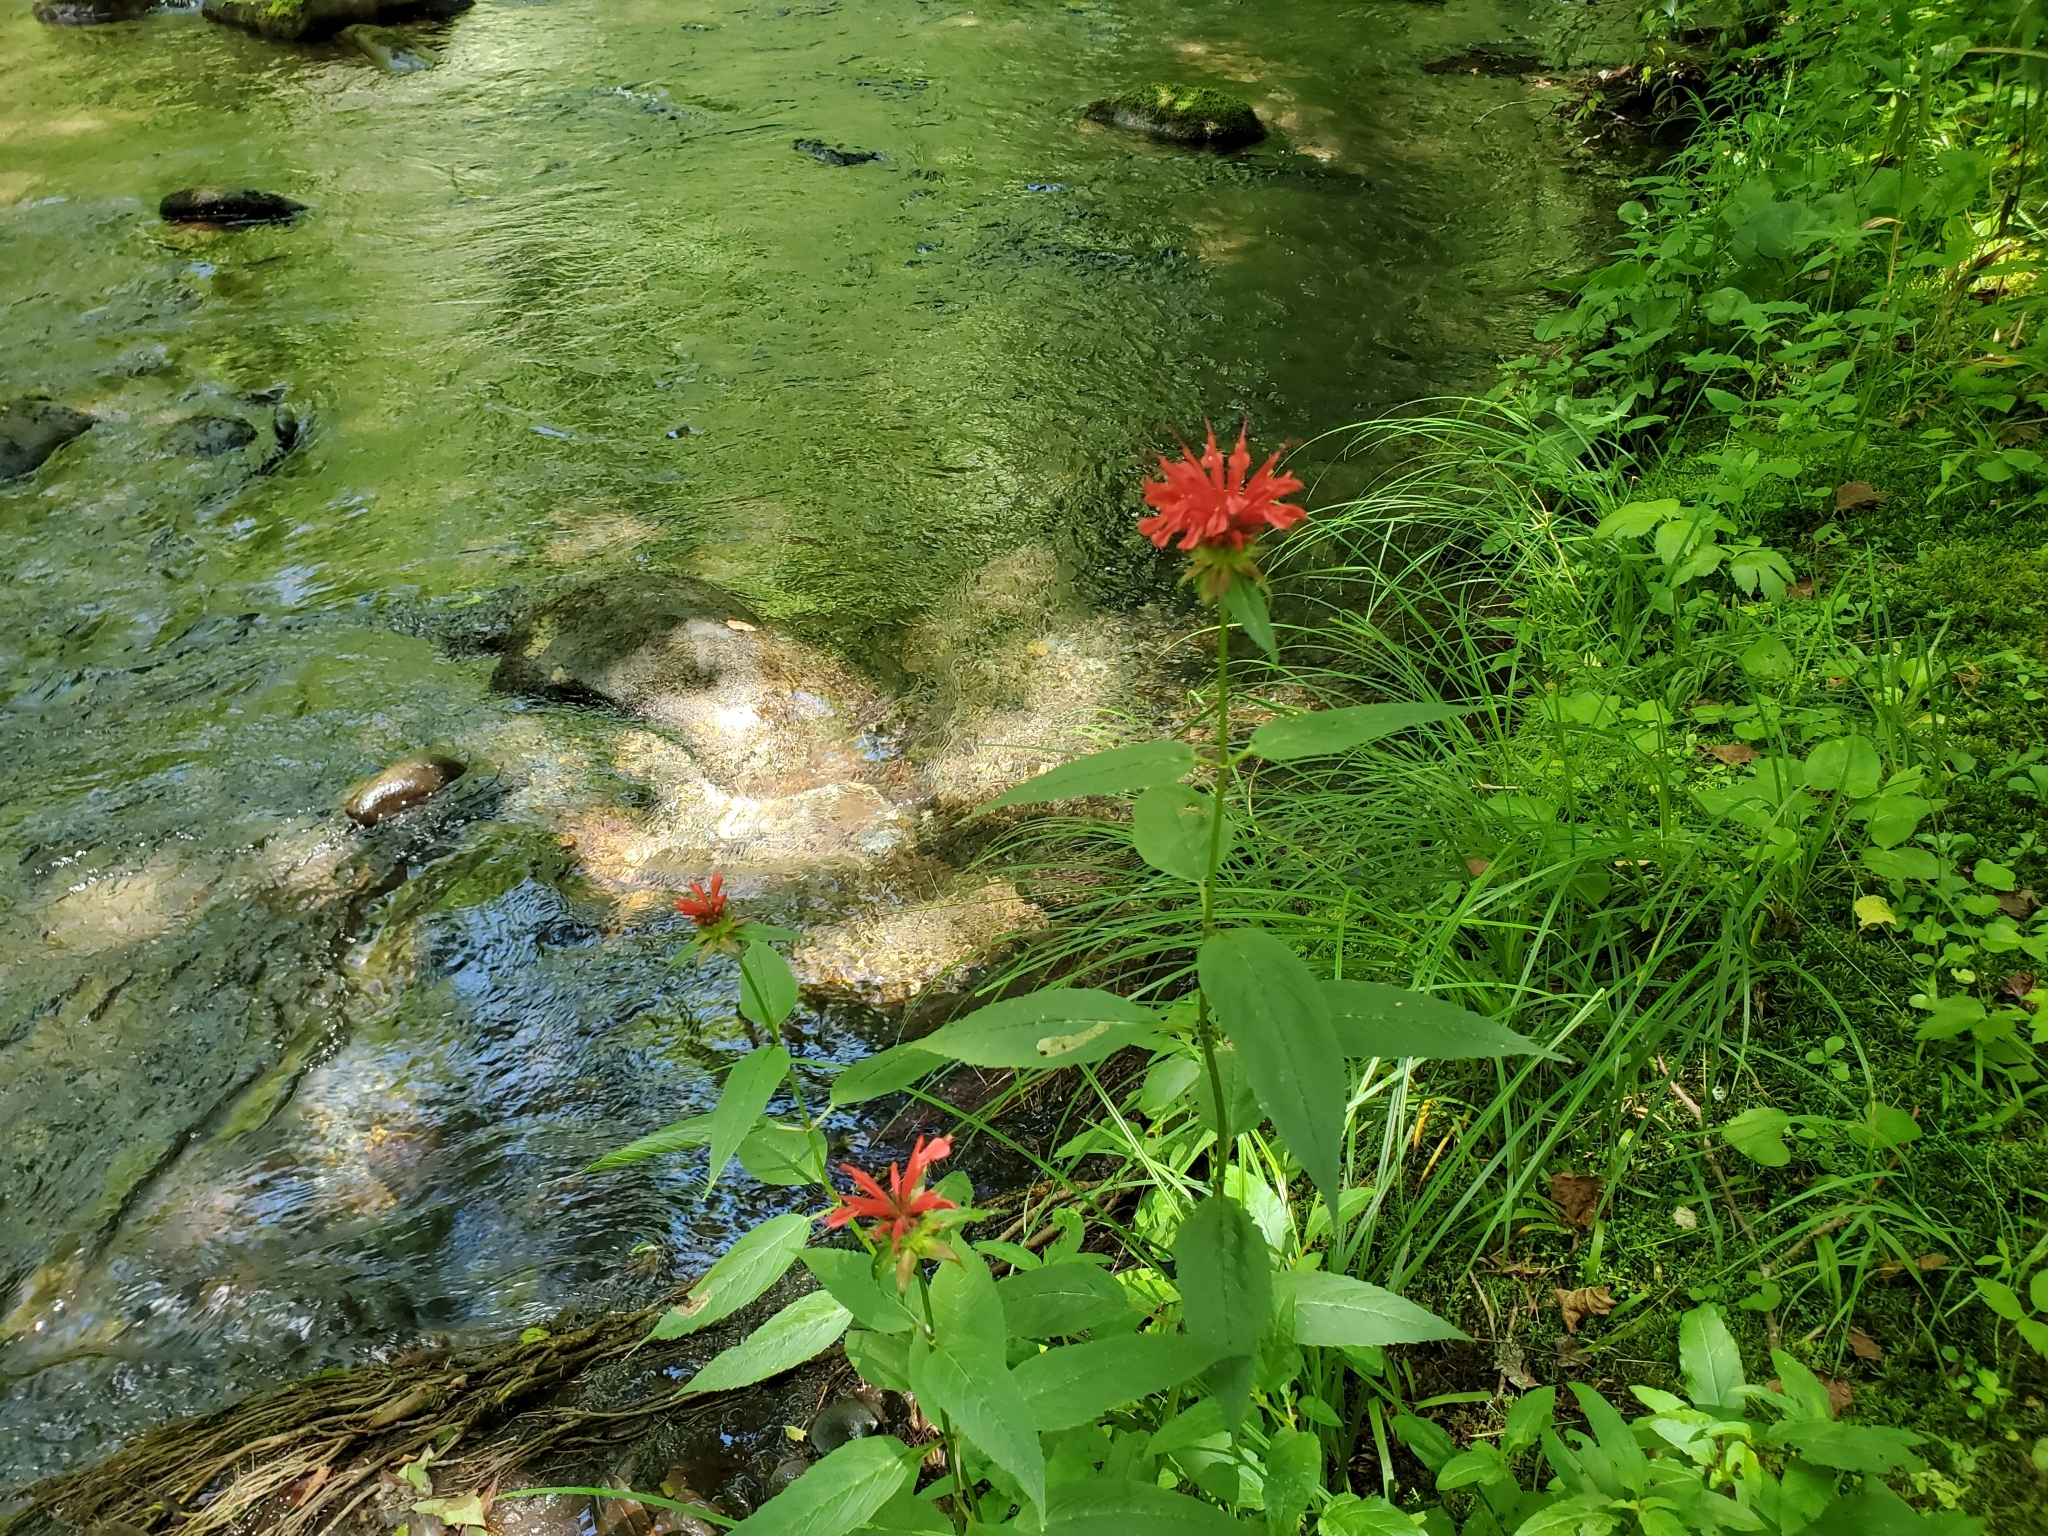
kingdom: Plantae
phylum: Tracheophyta
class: Magnoliopsida
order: Lamiales
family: Lamiaceae
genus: Monarda
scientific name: Monarda didyma
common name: Beebalm
